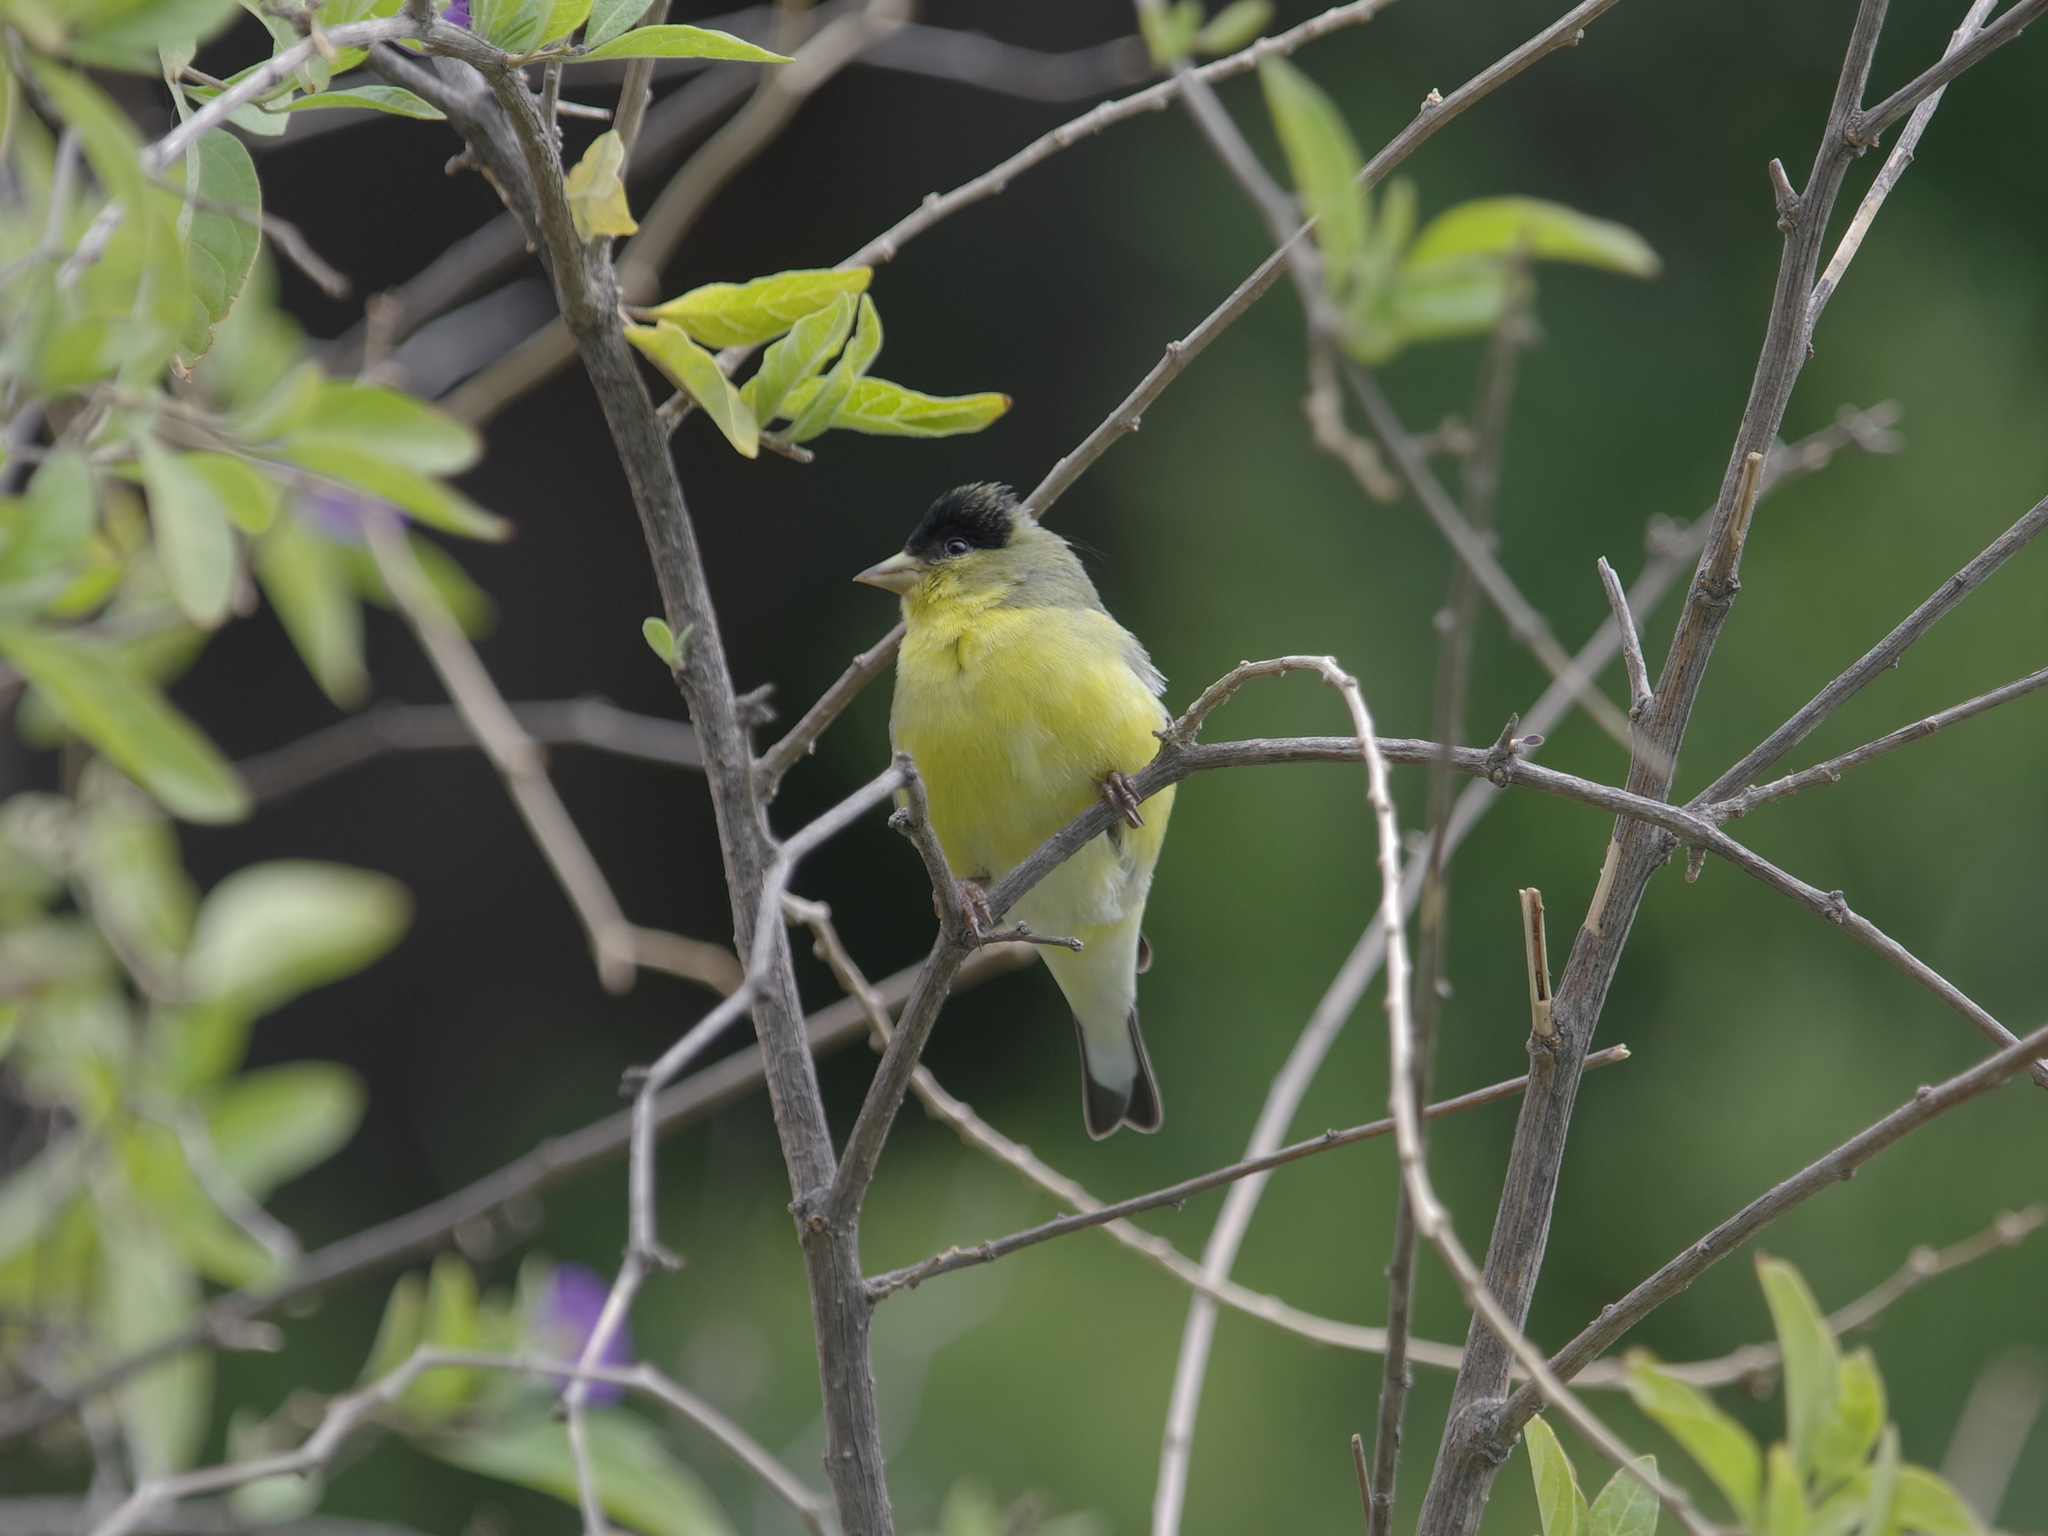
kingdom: Animalia
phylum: Chordata
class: Aves
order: Passeriformes
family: Fringillidae
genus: Spinus
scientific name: Spinus psaltria
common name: Lesser goldfinch
